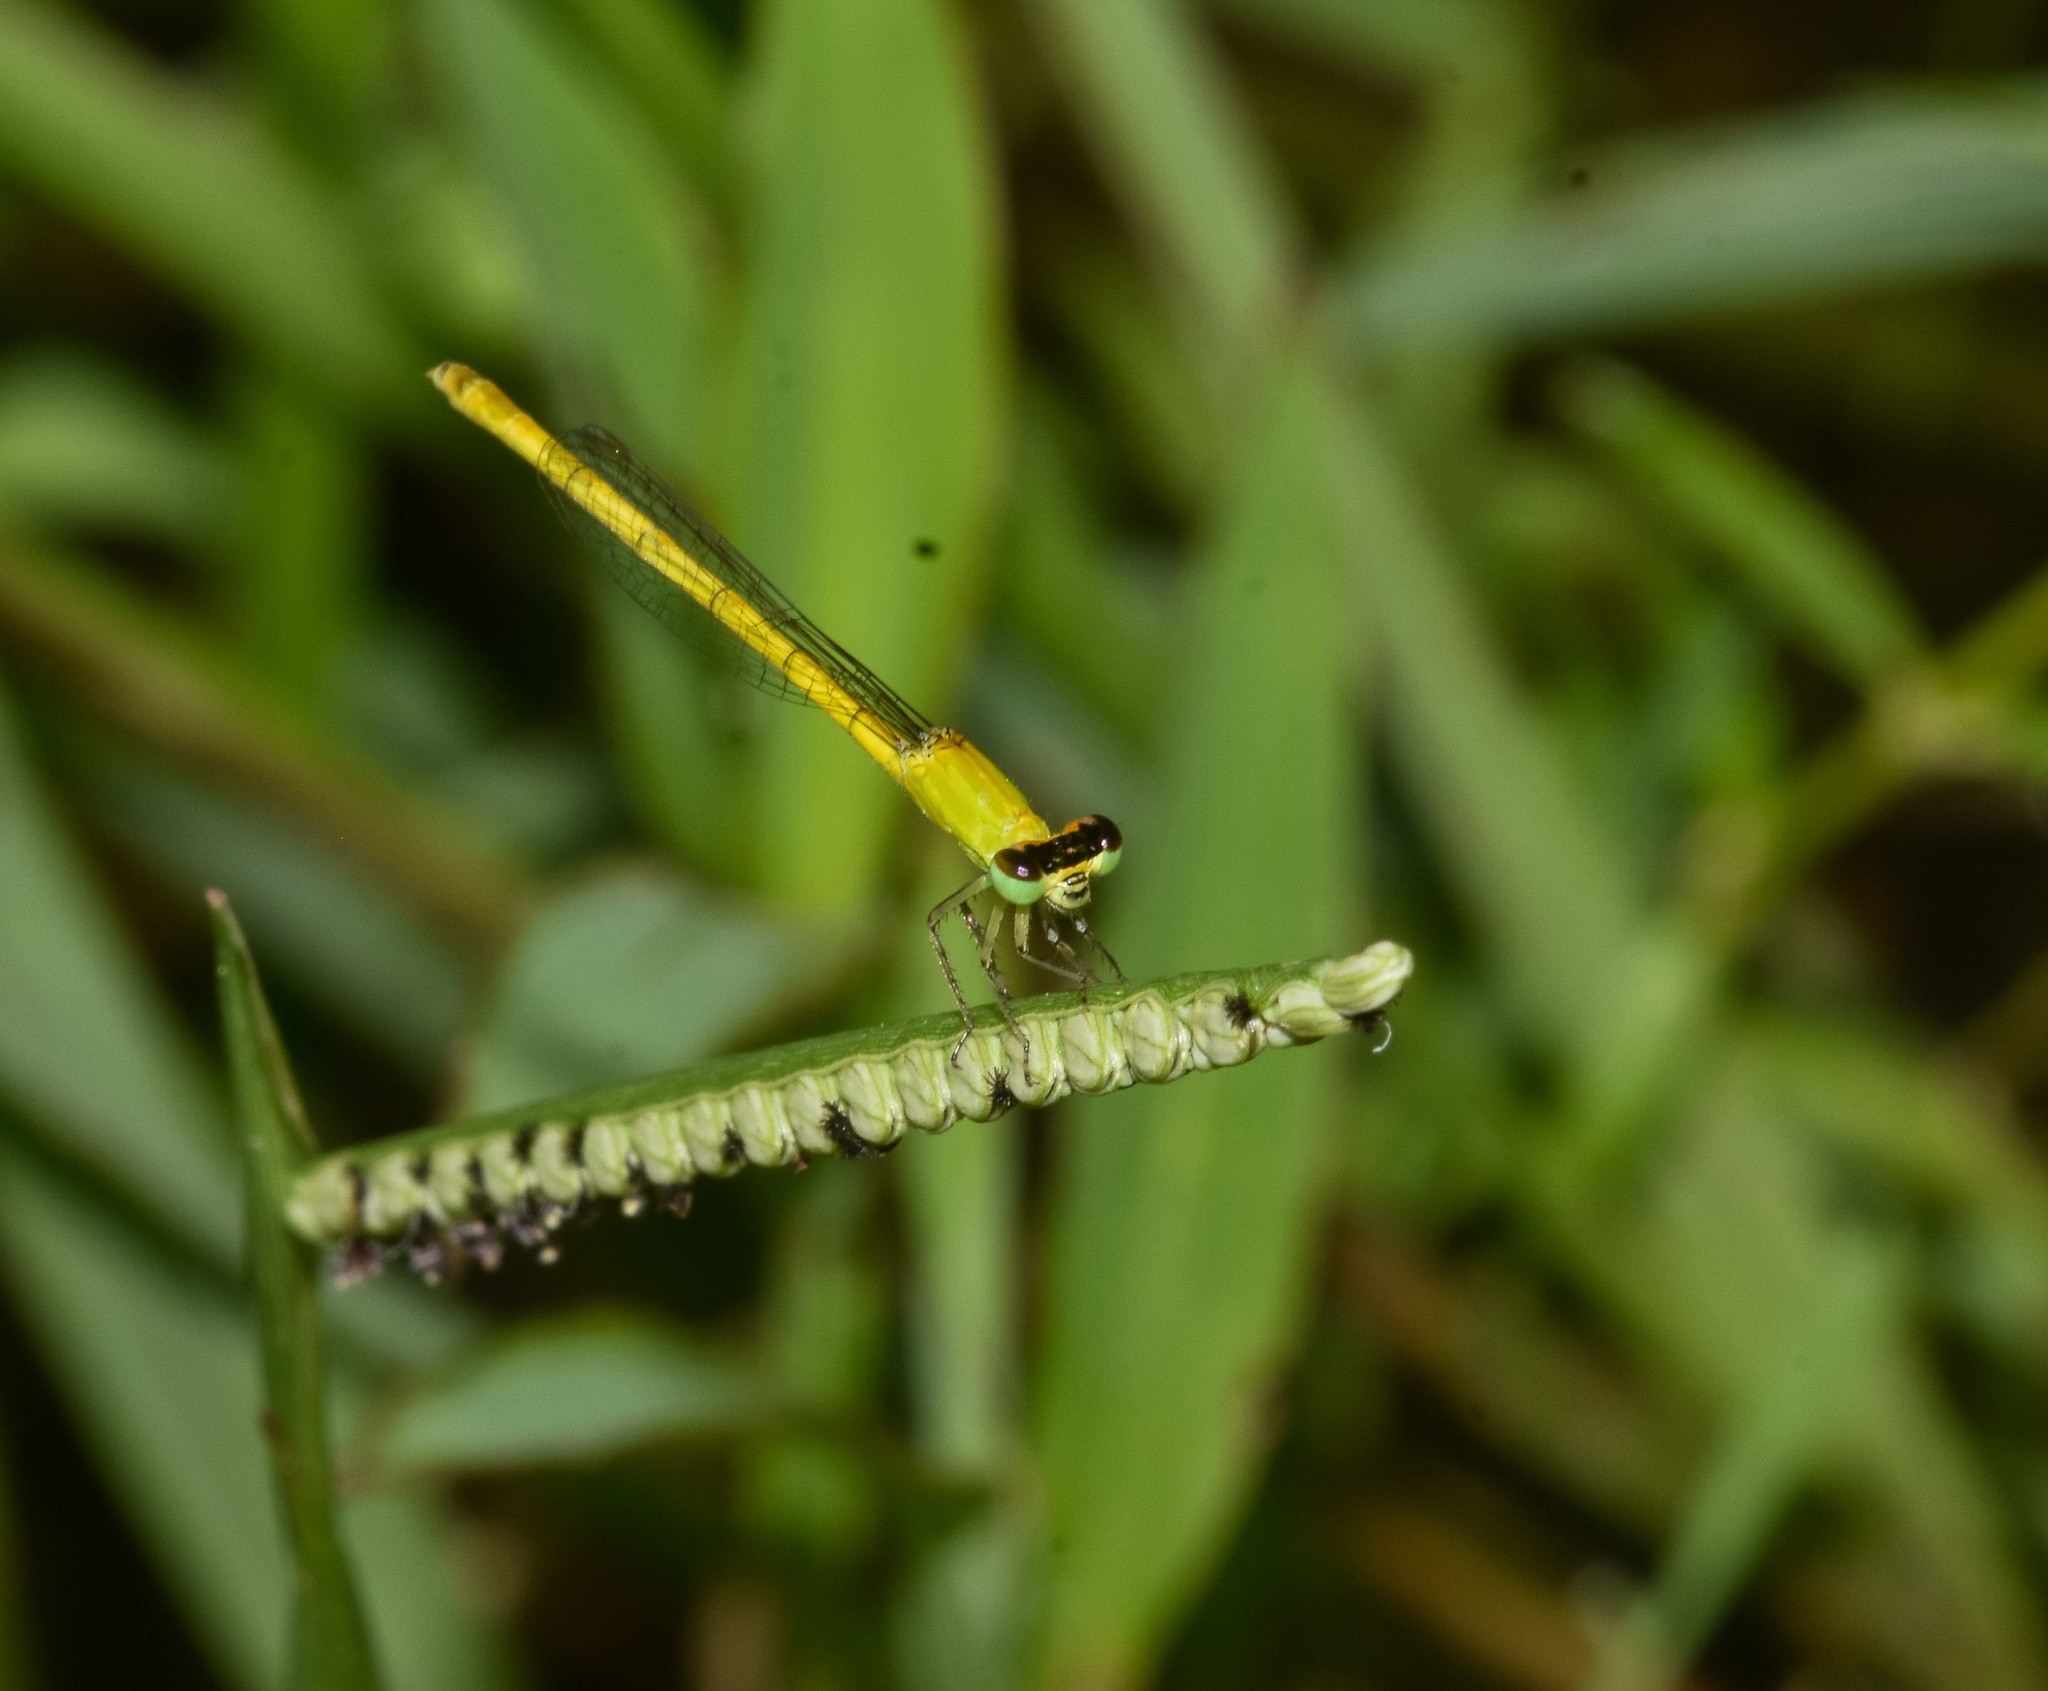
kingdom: Animalia
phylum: Arthropoda
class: Insecta
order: Odonata
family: Coenagrionidae
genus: Agriocnemis
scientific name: Agriocnemis kalinga
